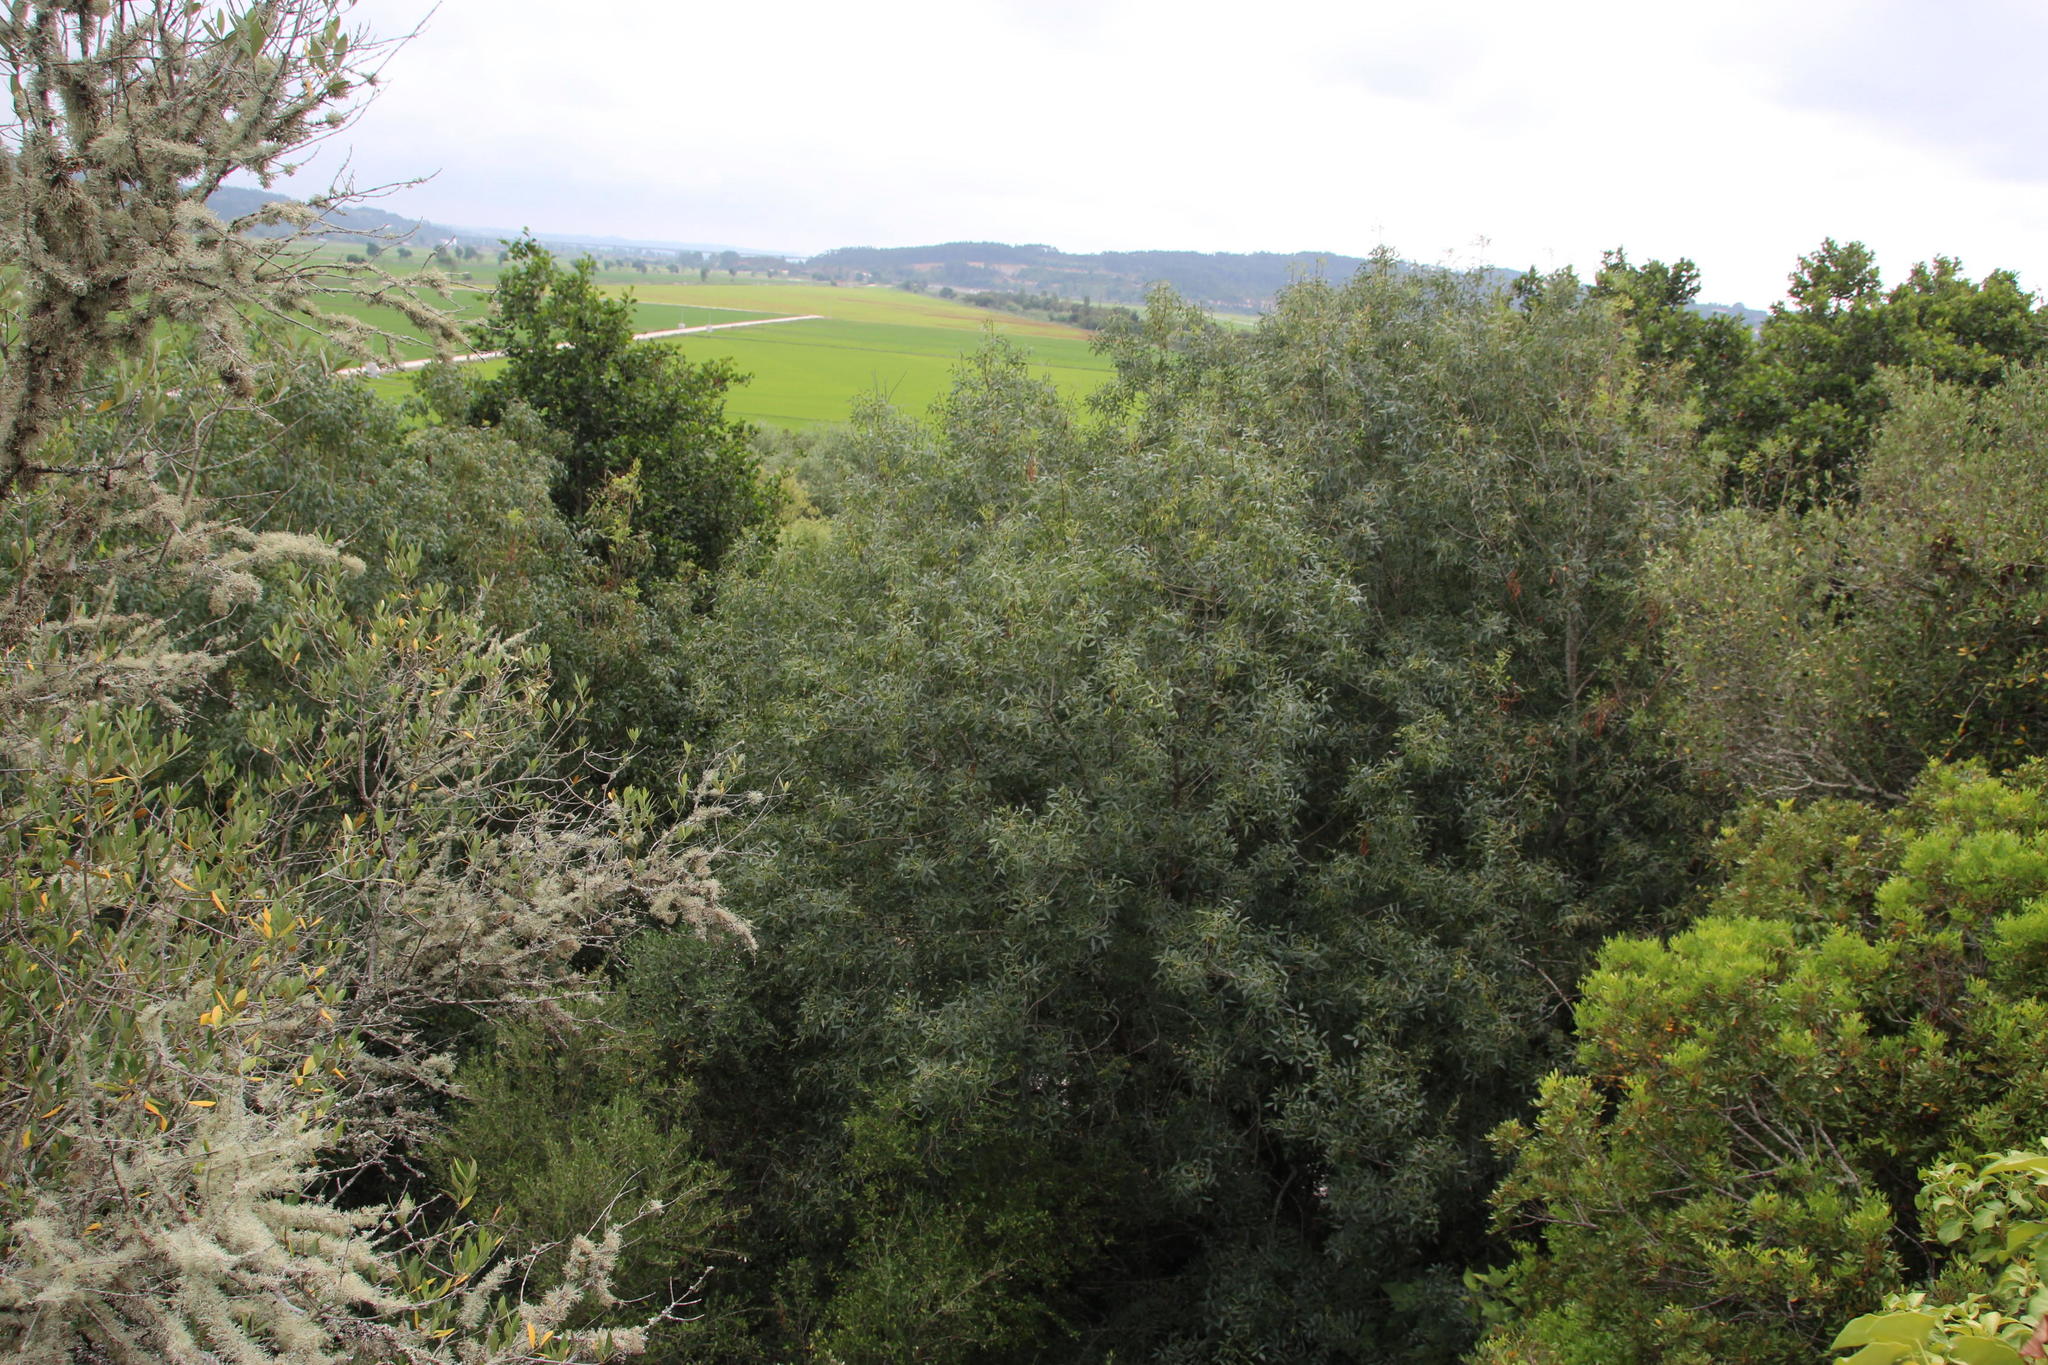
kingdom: Plantae
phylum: Tracheophyta
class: Magnoliopsida
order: Lamiales
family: Oleaceae
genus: Fraxinus
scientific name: Fraxinus angustifolia
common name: Narrow-leafed ash
